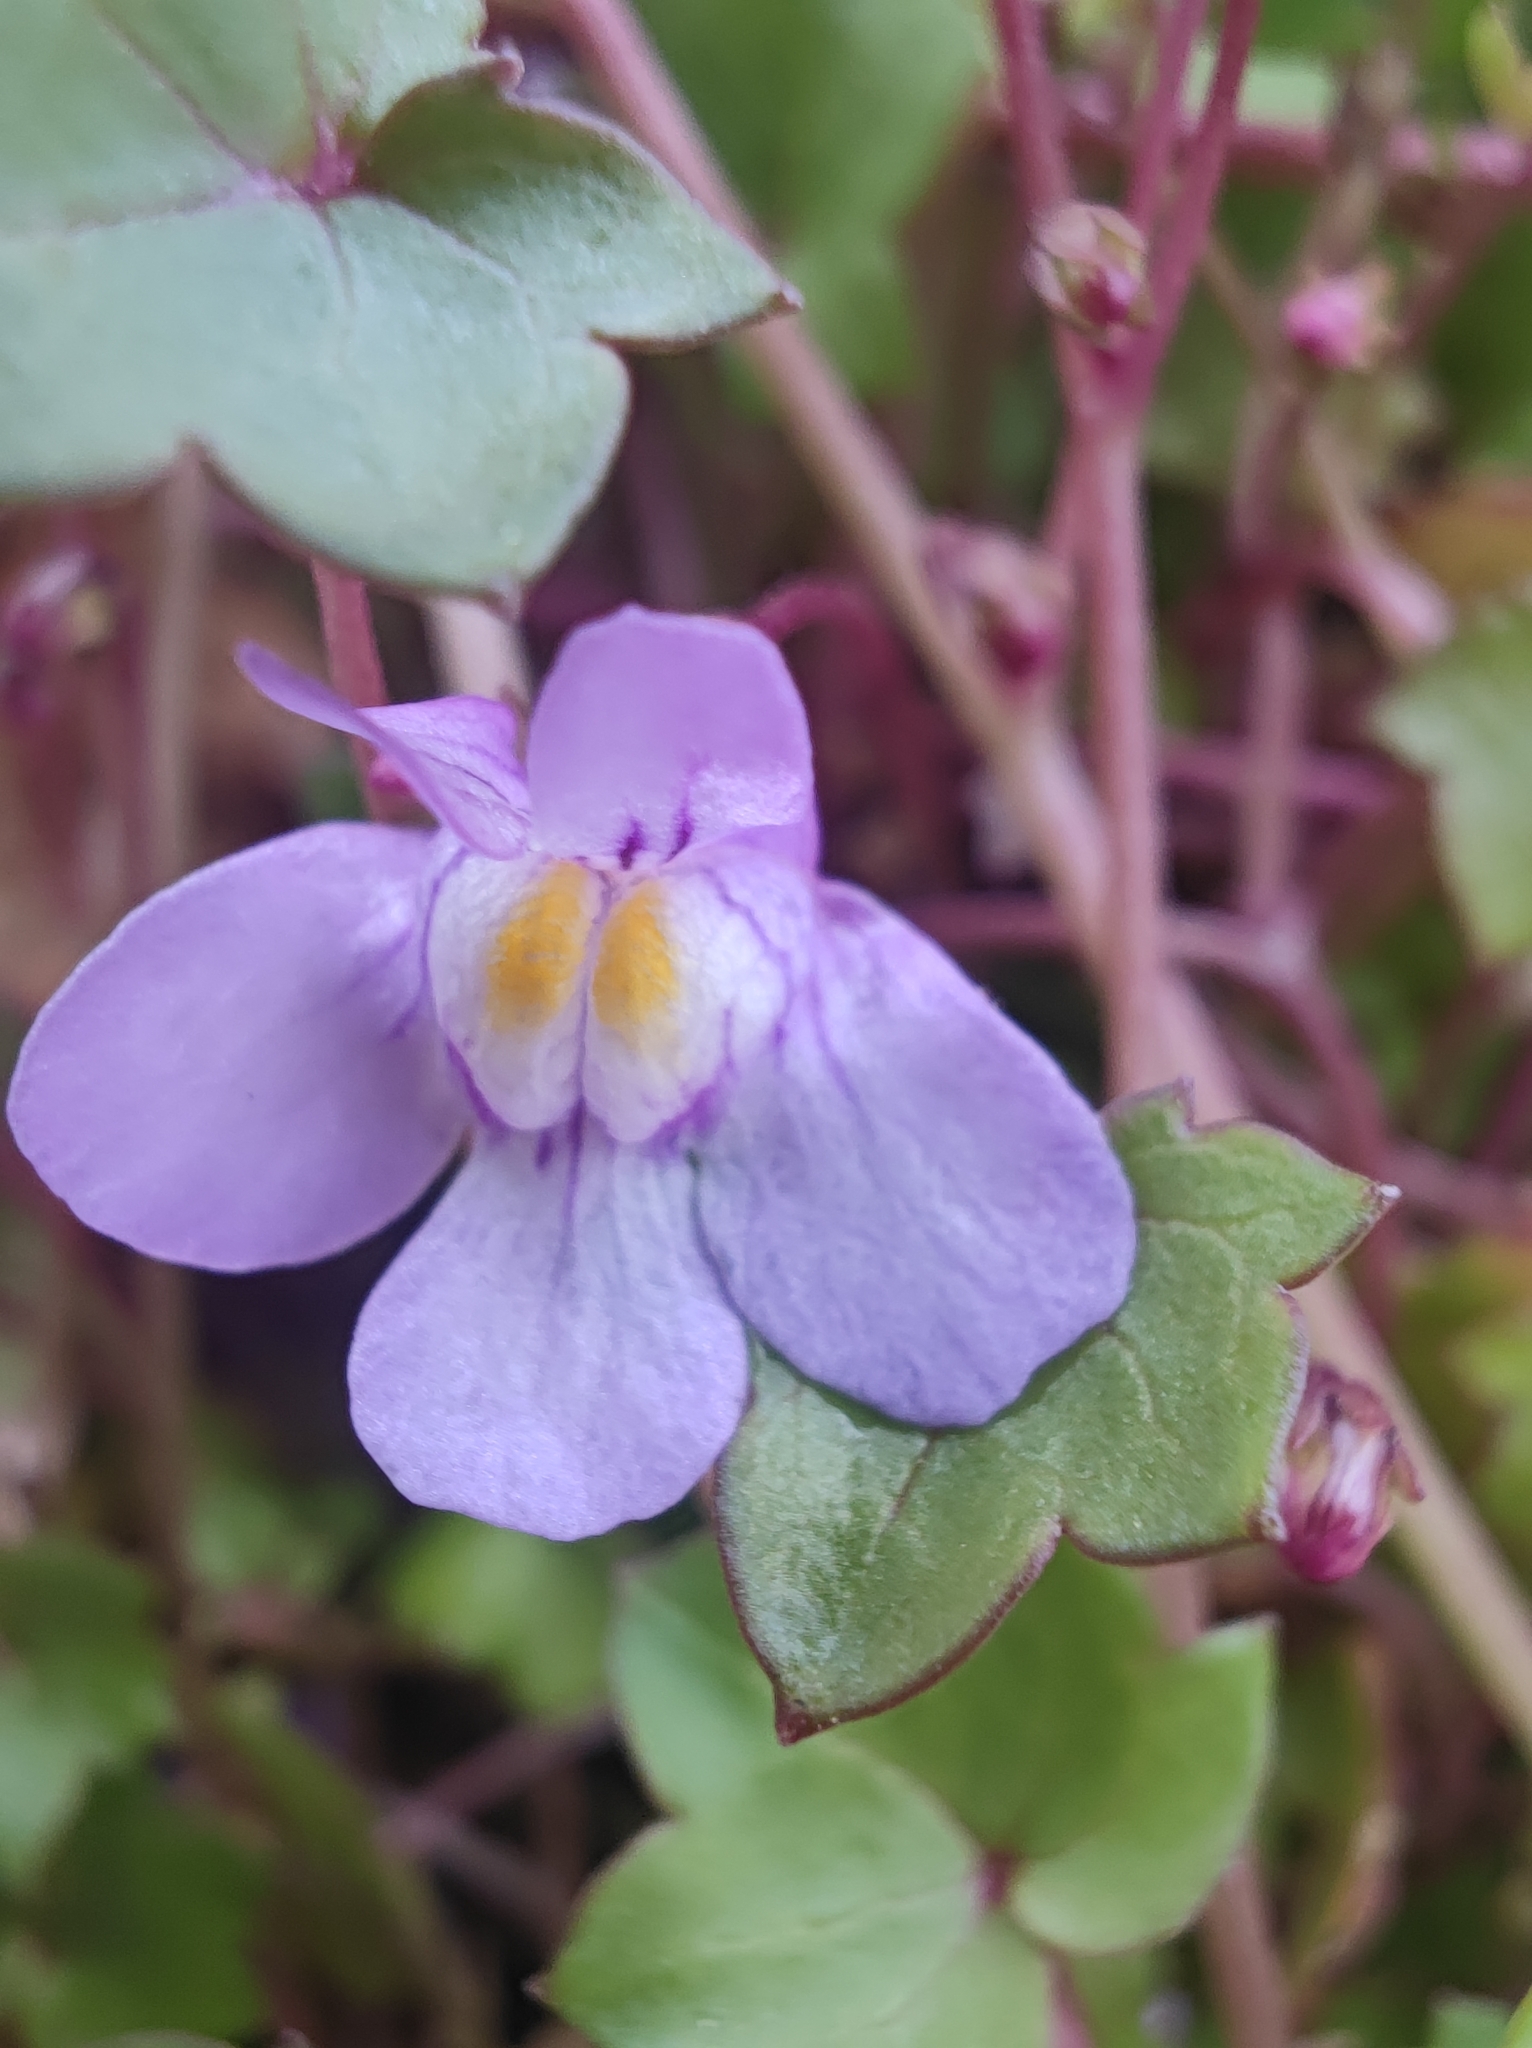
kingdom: Plantae
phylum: Tracheophyta
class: Magnoliopsida
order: Lamiales
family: Plantaginaceae
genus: Cymbalaria
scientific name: Cymbalaria muralis
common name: Ivy-leaved toadflax
